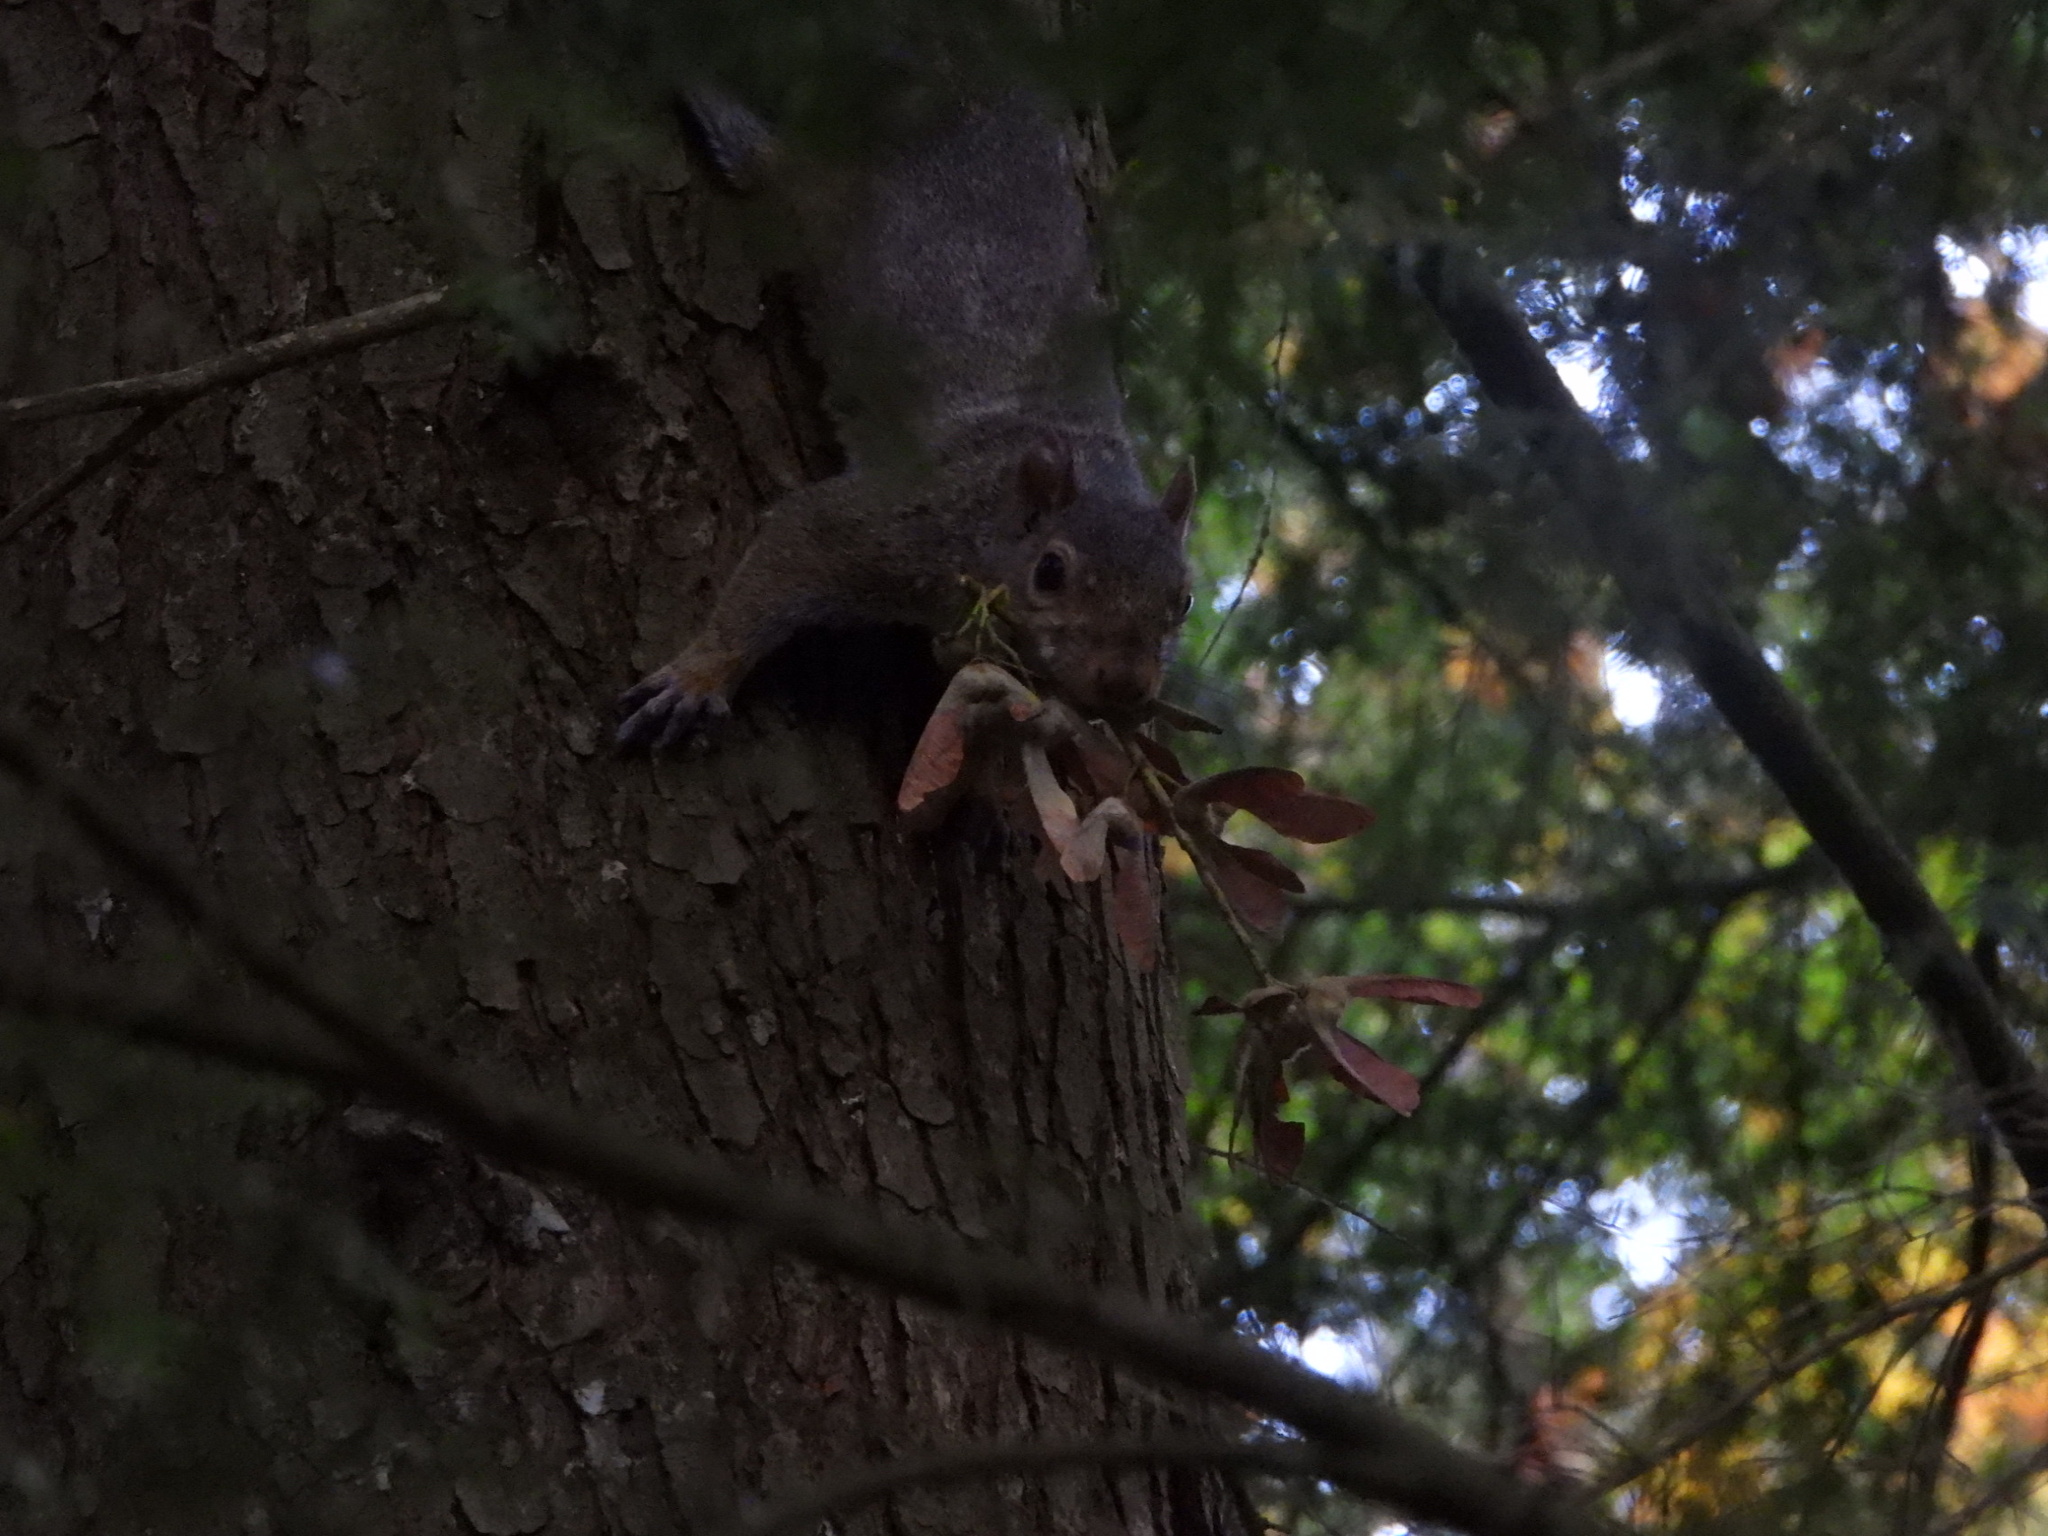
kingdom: Animalia
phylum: Chordata
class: Mammalia
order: Rodentia
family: Sciuridae
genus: Sciurus
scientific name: Sciurus carolinensis
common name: Eastern gray squirrel
